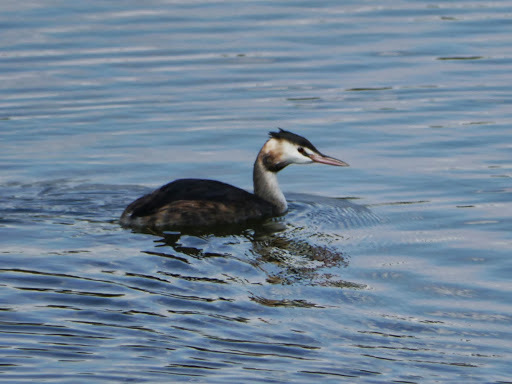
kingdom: Animalia
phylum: Chordata
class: Aves
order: Podicipediformes
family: Podicipedidae
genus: Podiceps
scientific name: Podiceps cristatus
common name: Great crested grebe
